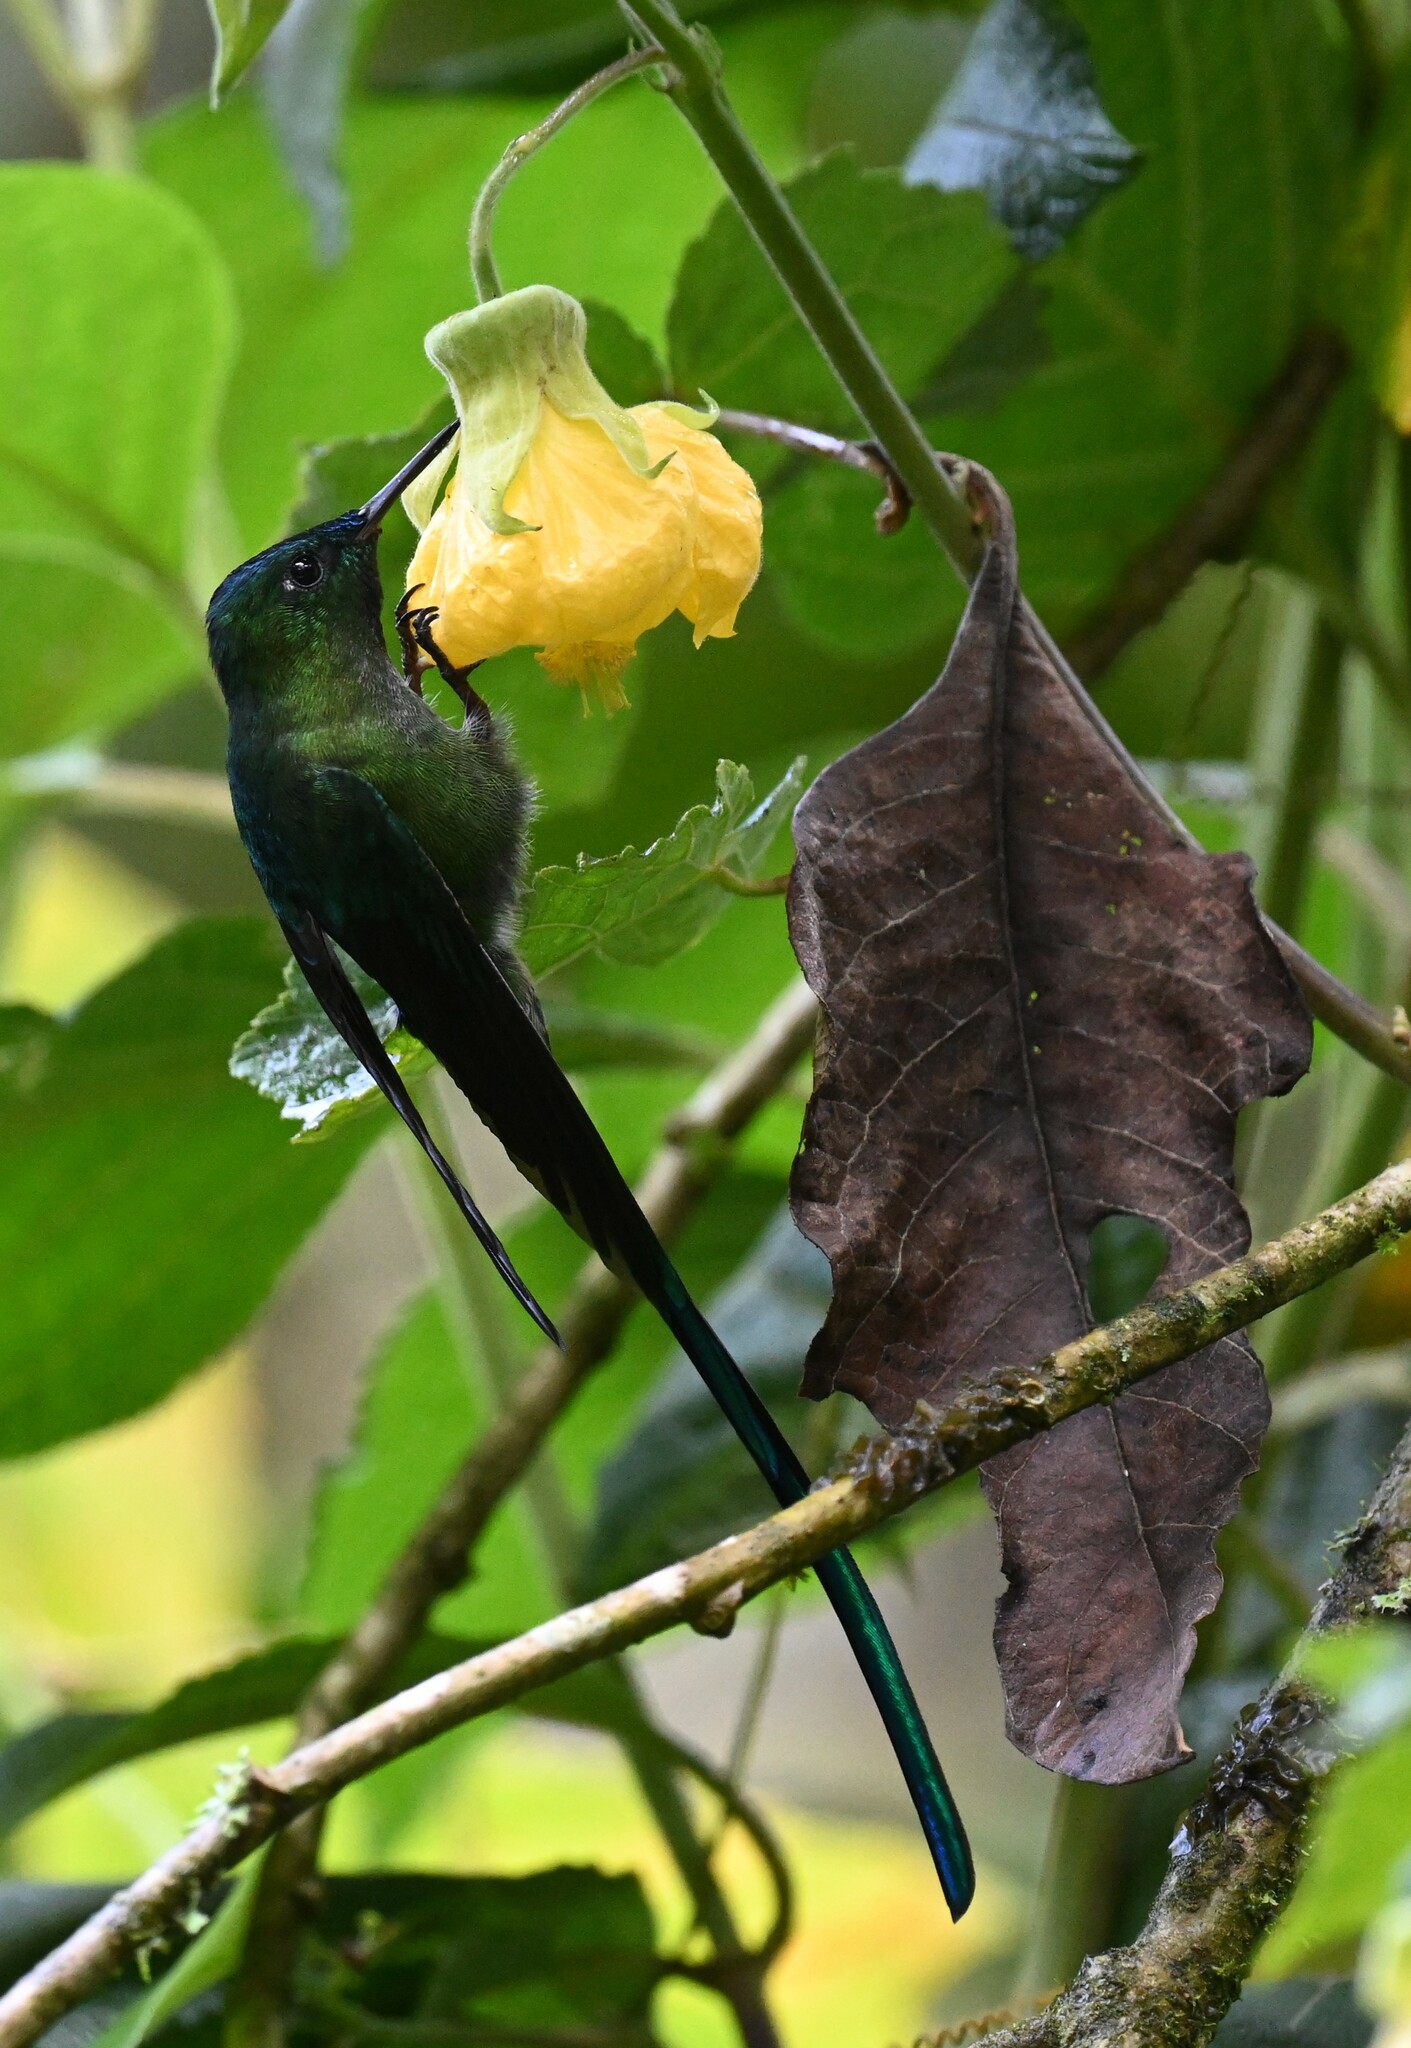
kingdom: Animalia
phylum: Chordata
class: Aves
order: Apodiformes
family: Trochilidae
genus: Aglaiocercus
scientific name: Aglaiocercus kingii
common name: Long-tailed sylph
